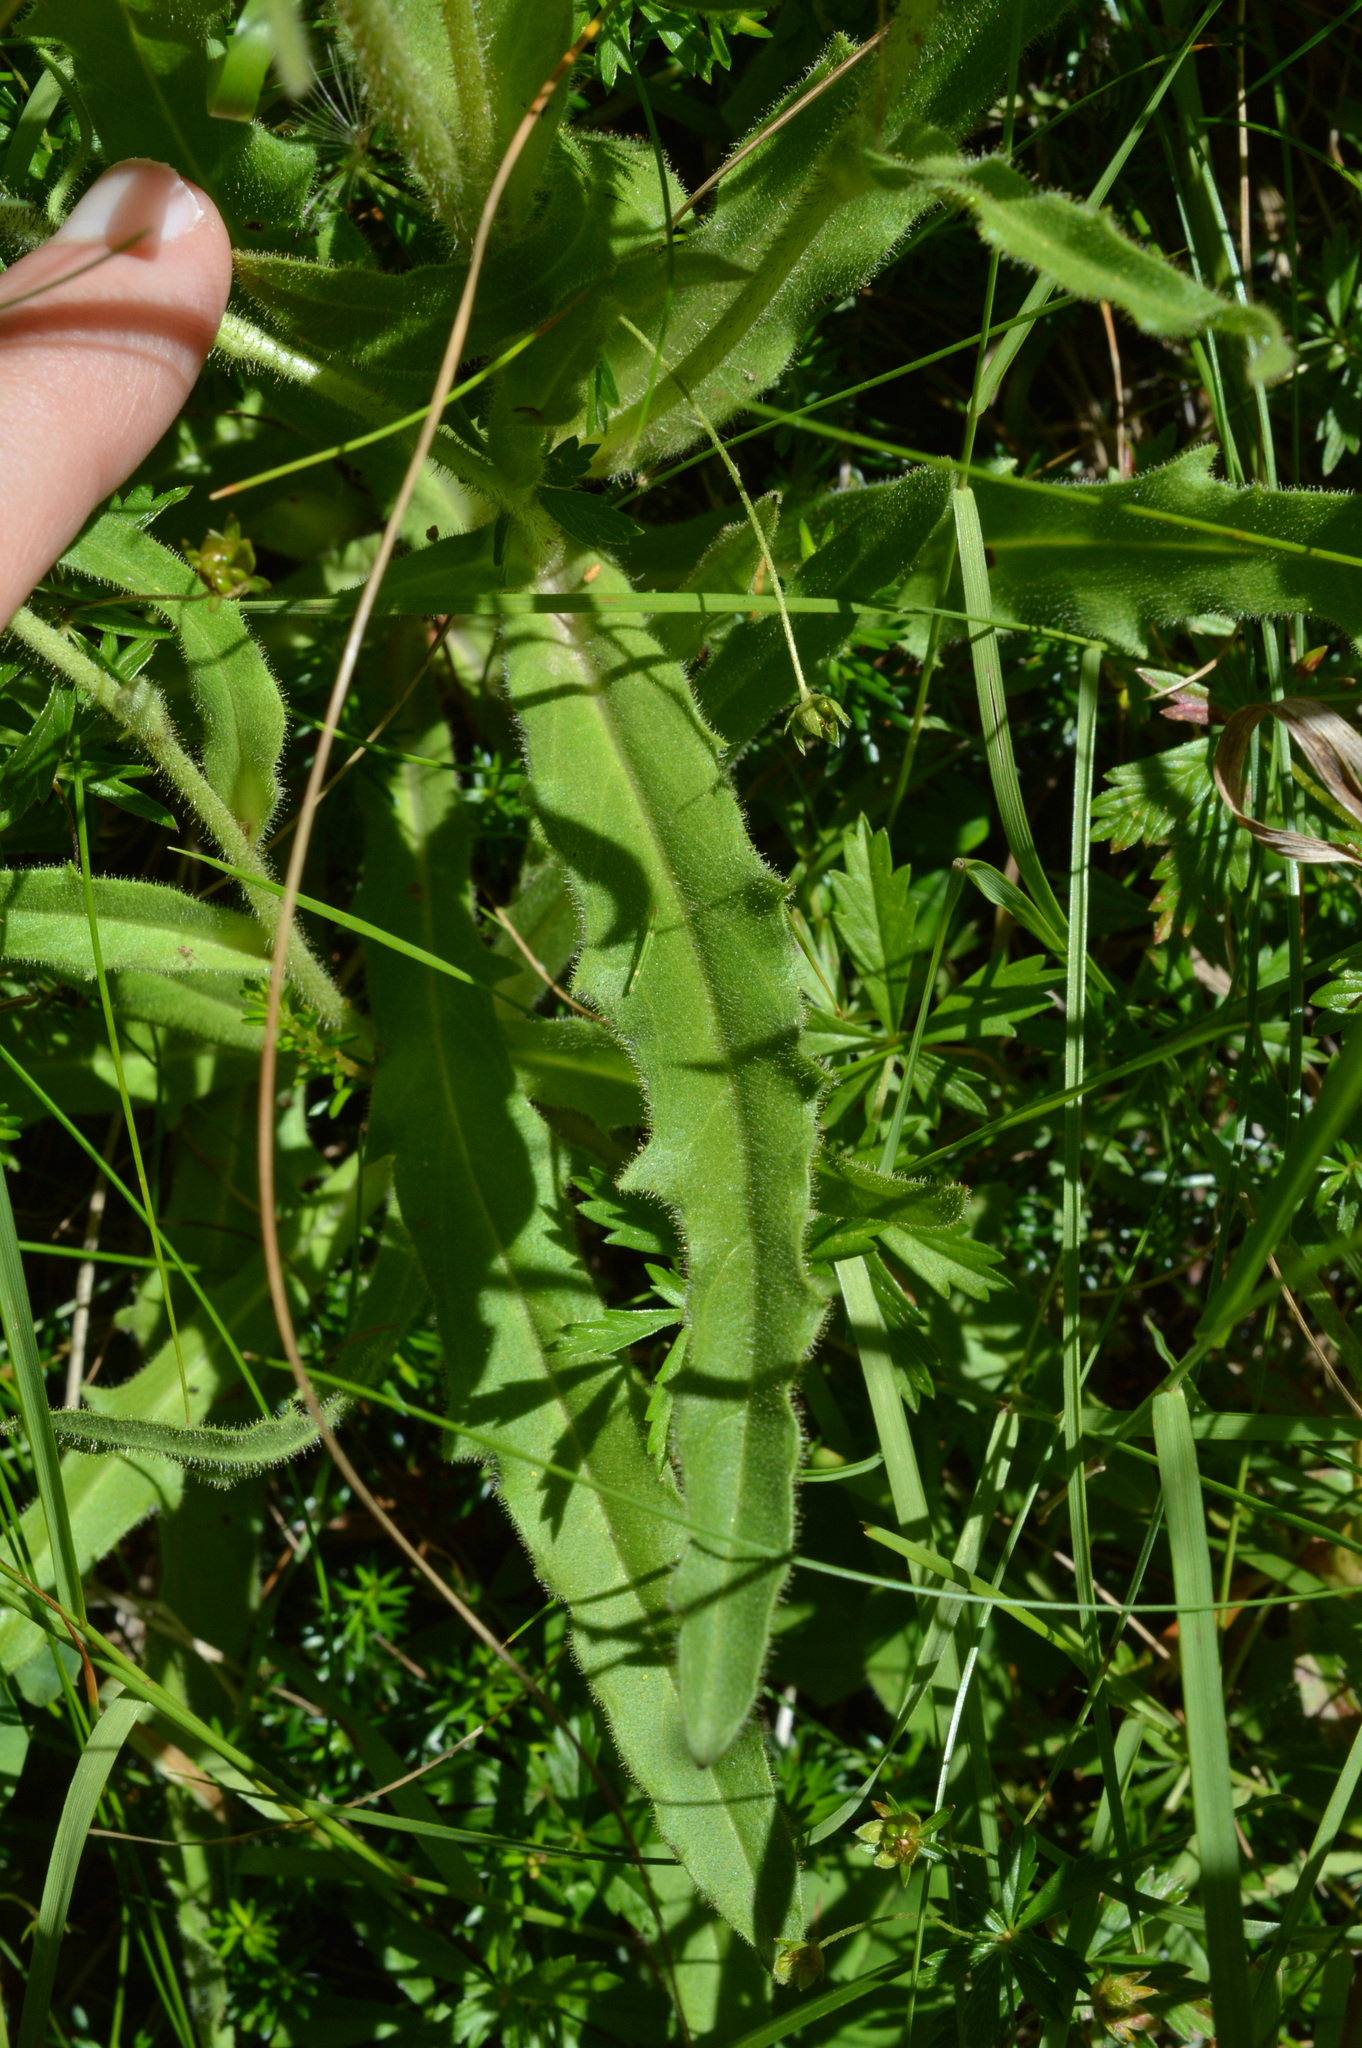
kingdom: Plantae
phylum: Tracheophyta
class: Magnoliopsida
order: Asterales
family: Asteraceae
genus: Schlagintweitia
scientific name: Schlagintweitia intybacea
